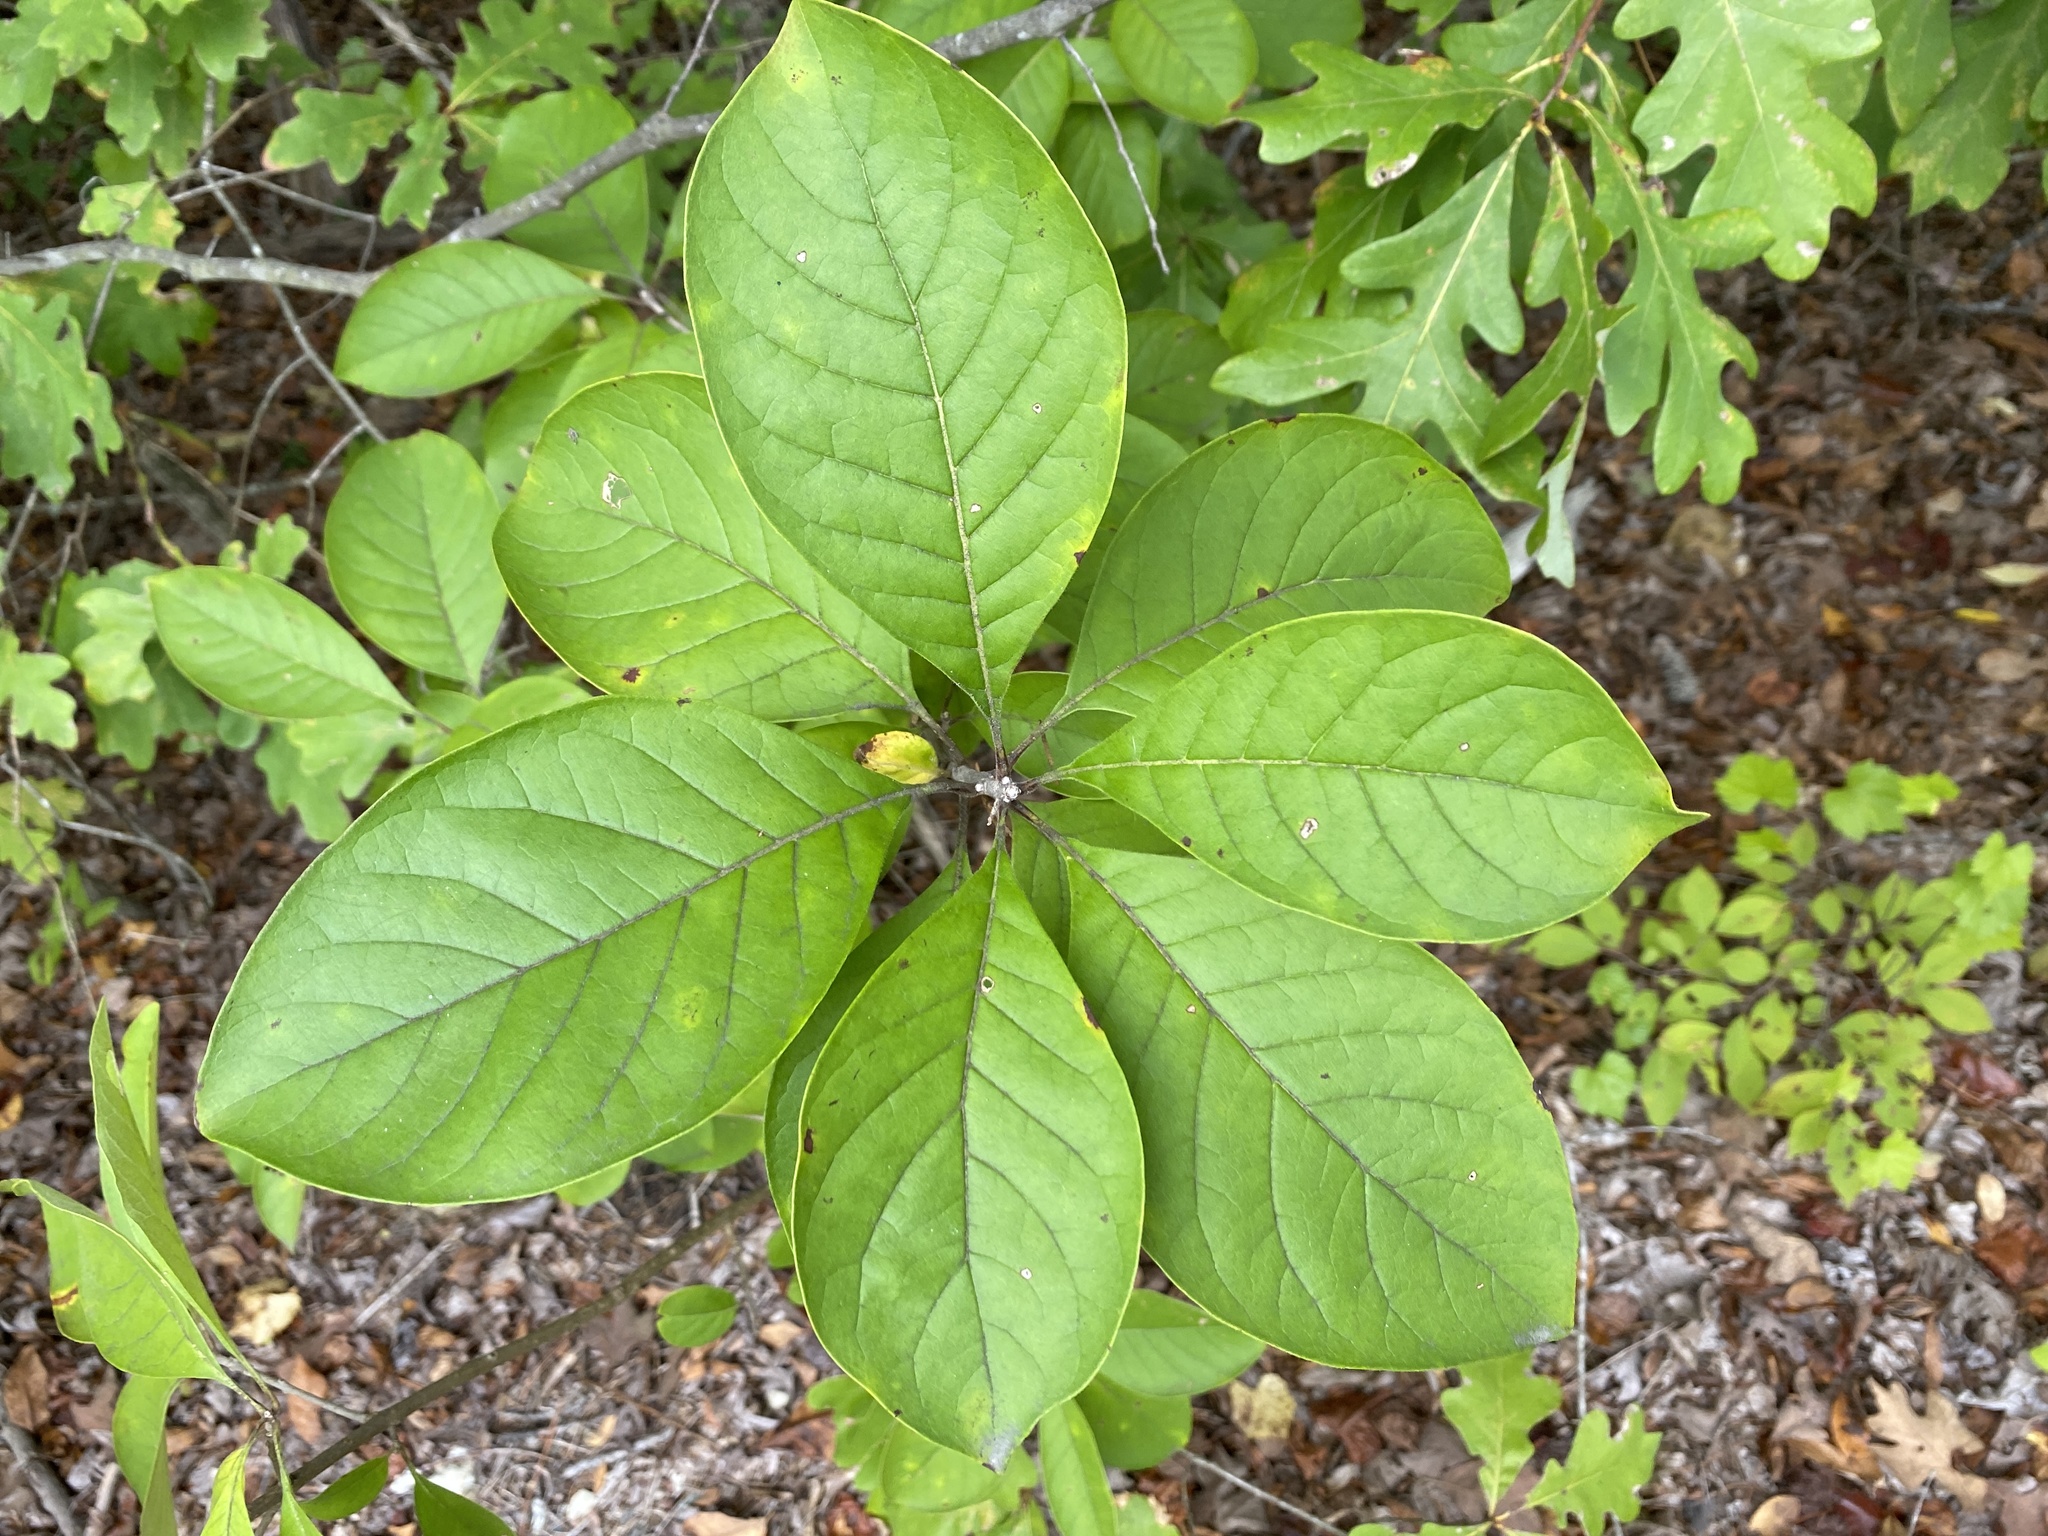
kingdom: Plantae
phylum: Tracheophyta
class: Magnoliopsida
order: Lamiales
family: Oleaceae
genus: Chionanthus
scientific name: Chionanthus virginicus
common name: American fringetree
